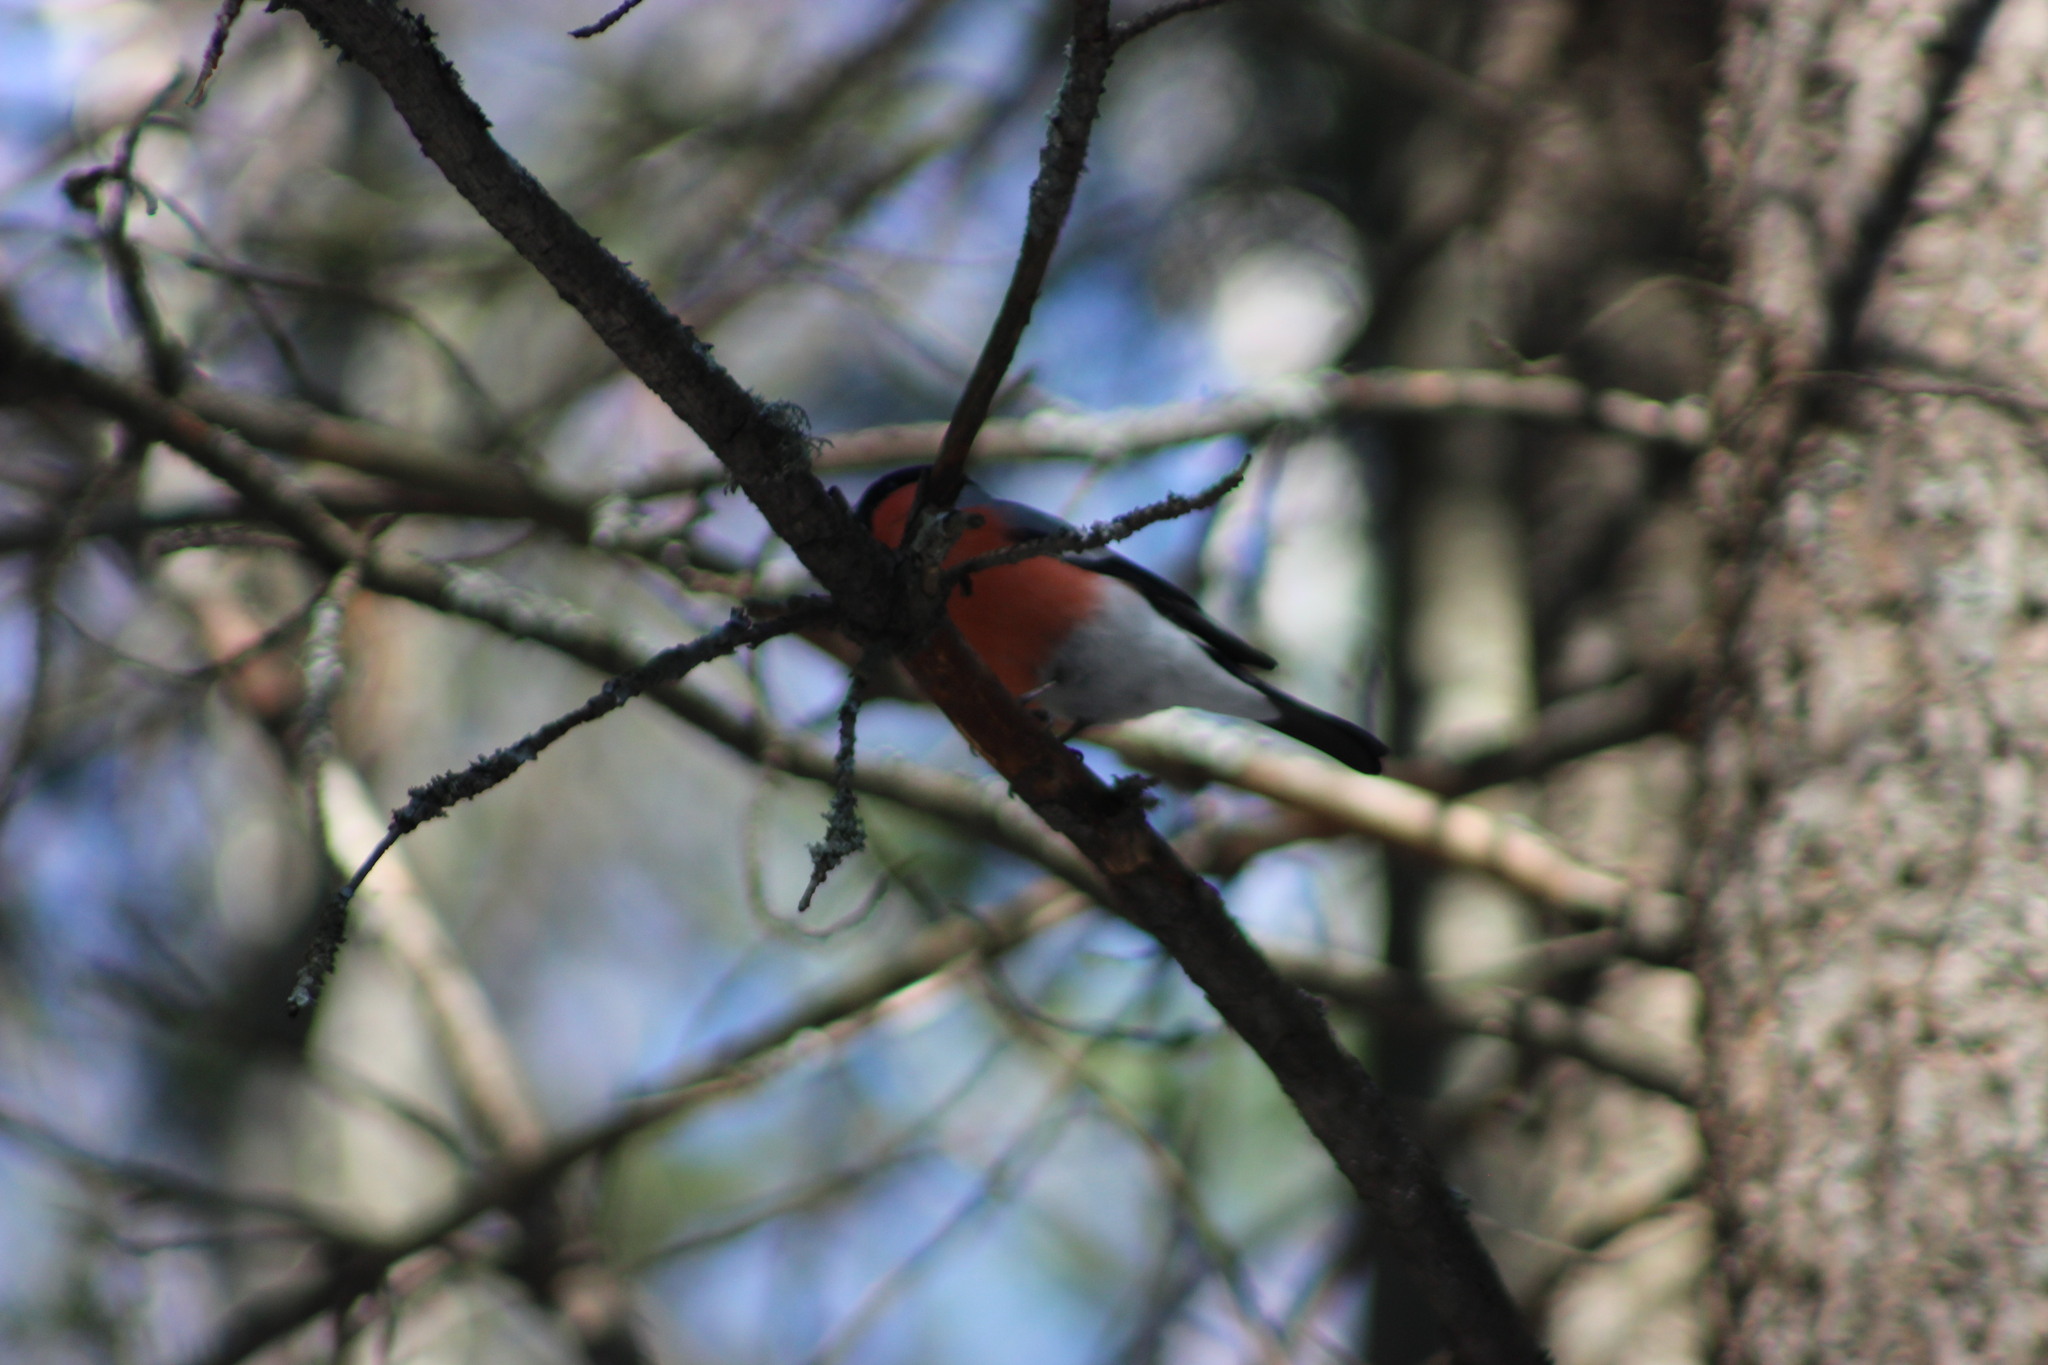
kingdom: Animalia
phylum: Chordata
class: Aves
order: Passeriformes
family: Fringillidae
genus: Pyrrhula
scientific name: Pyrrhula pyrrhula
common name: Eurasian bullfinch
